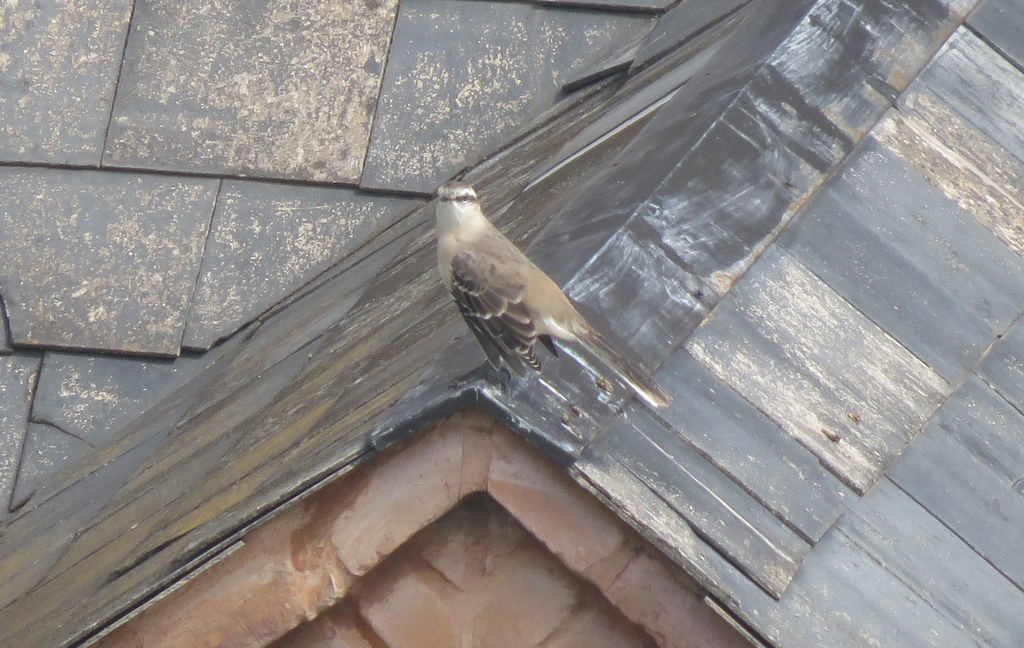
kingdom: Animalia
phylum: Chordata
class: Aves
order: Passeriformes
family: Mimidae
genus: Mimus
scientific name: Mimus saturninus
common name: Chalk-browed mockingbird
